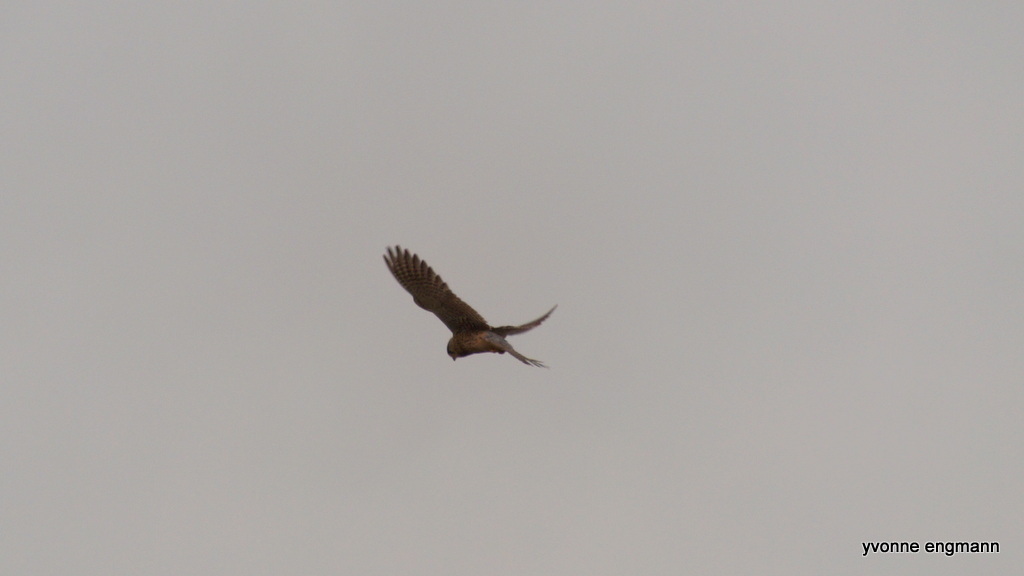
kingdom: Animalia
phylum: Chordata
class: Aves
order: Falconiformes
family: Falconidae
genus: Falco
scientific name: Falco tinnunculus
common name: Common kestrel
